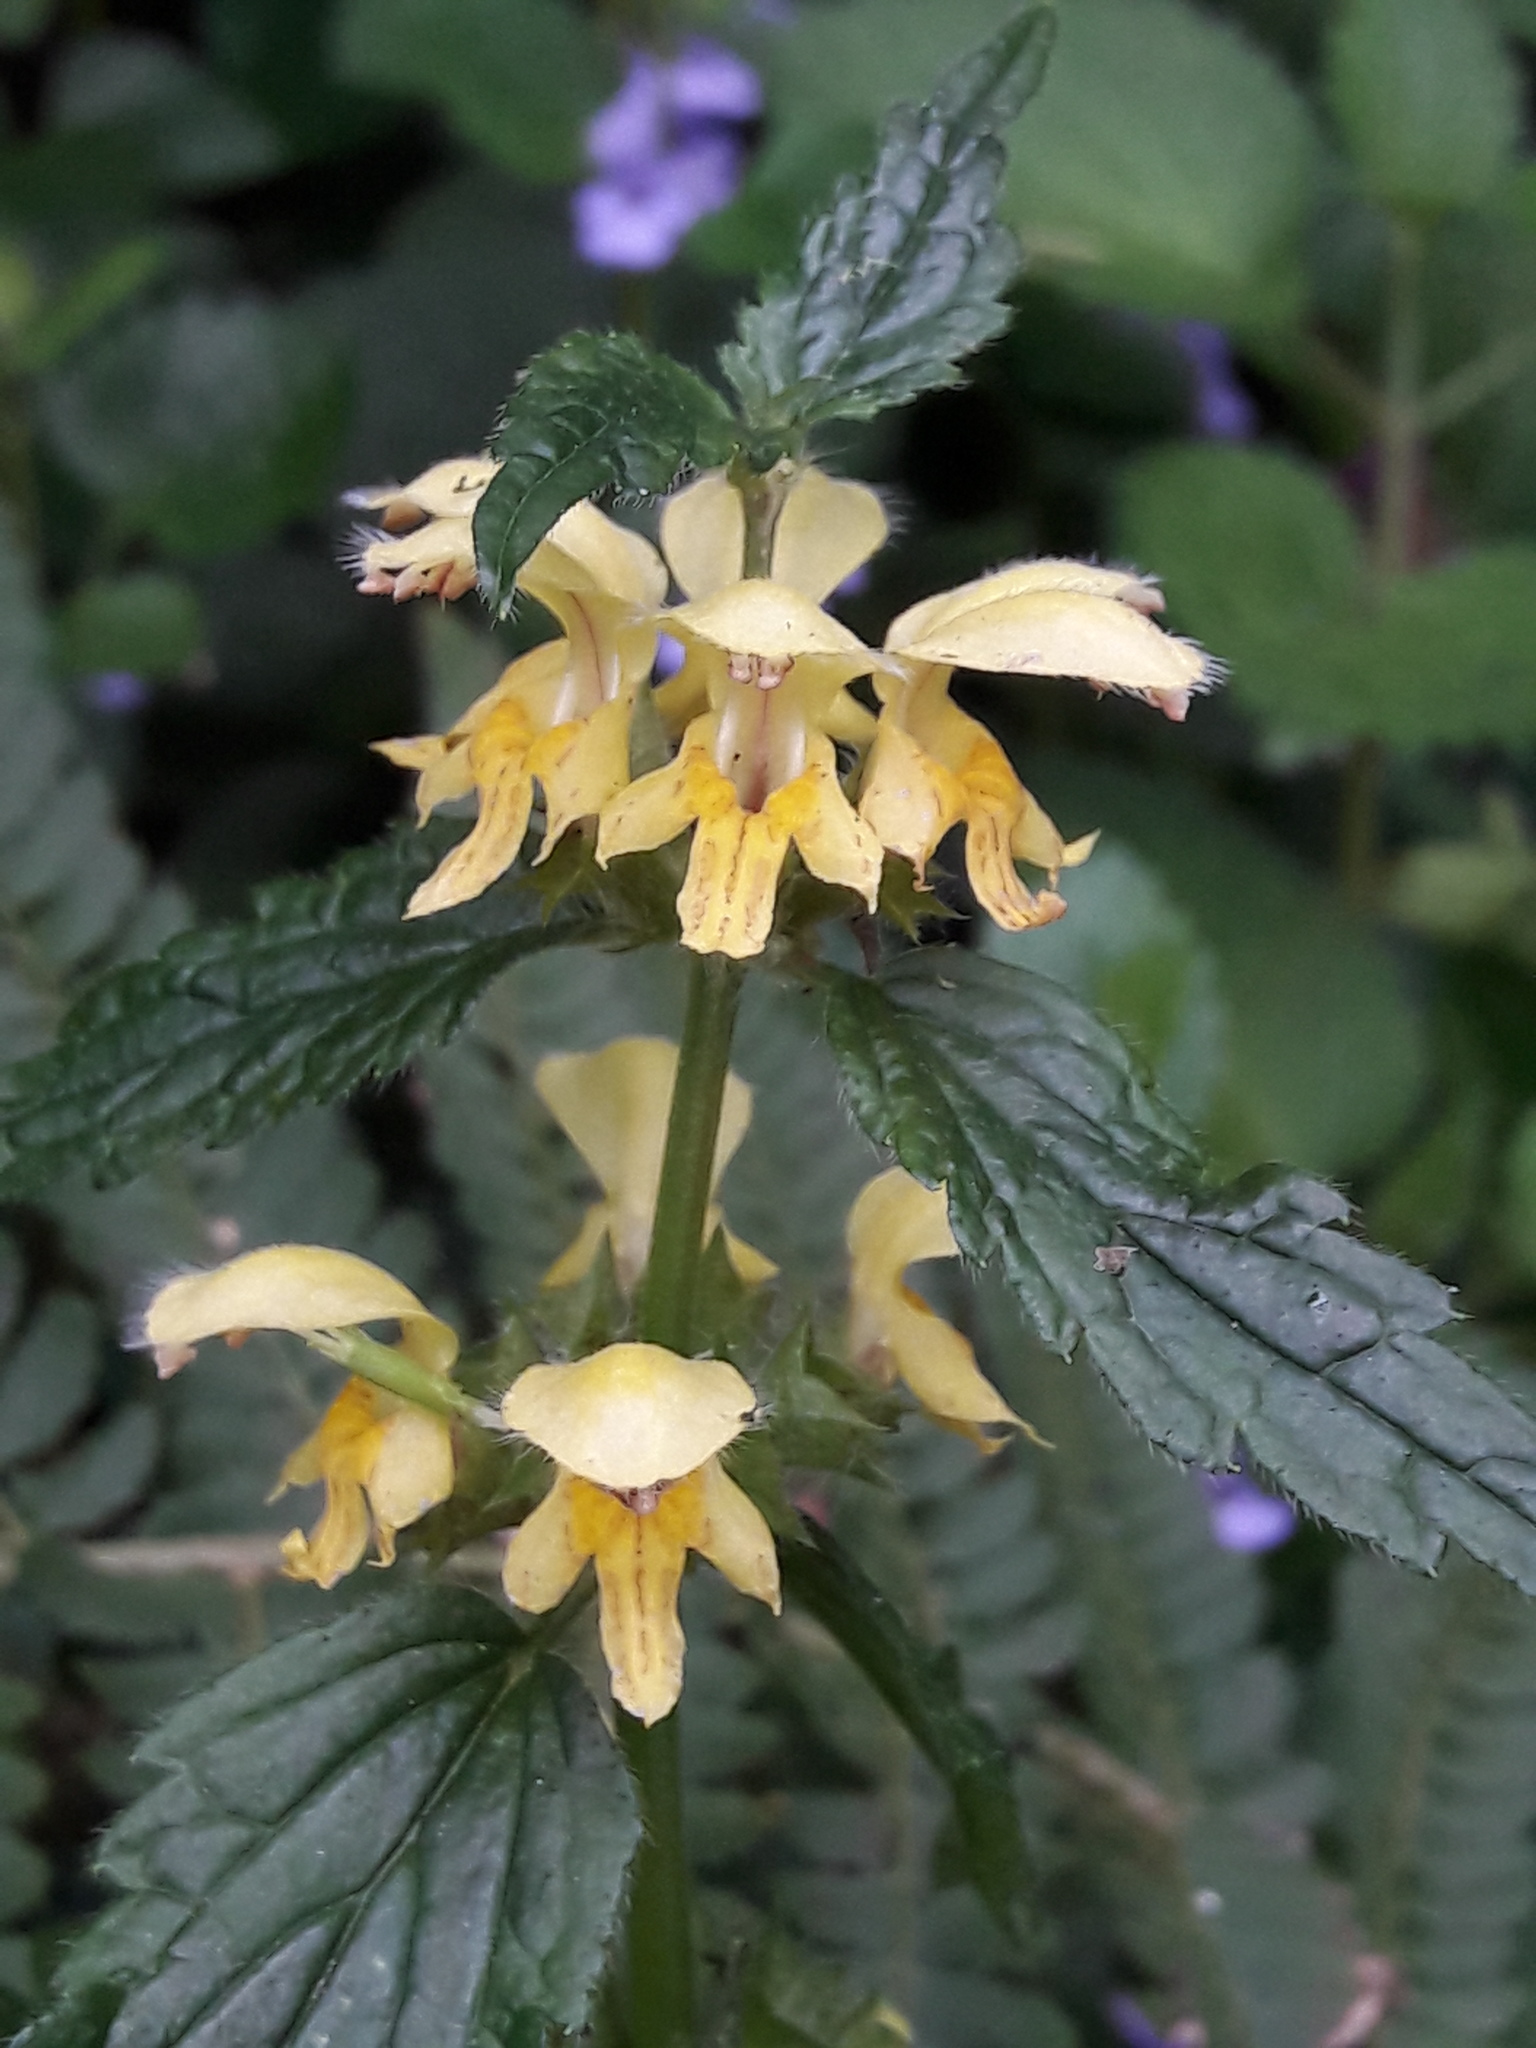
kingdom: Plantae
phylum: Tracheophyta
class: Magnoliopsida
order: Lamiales
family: Lamiaceae
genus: Lamium
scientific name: Lamium galeobdolon
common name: Yellow archangel
